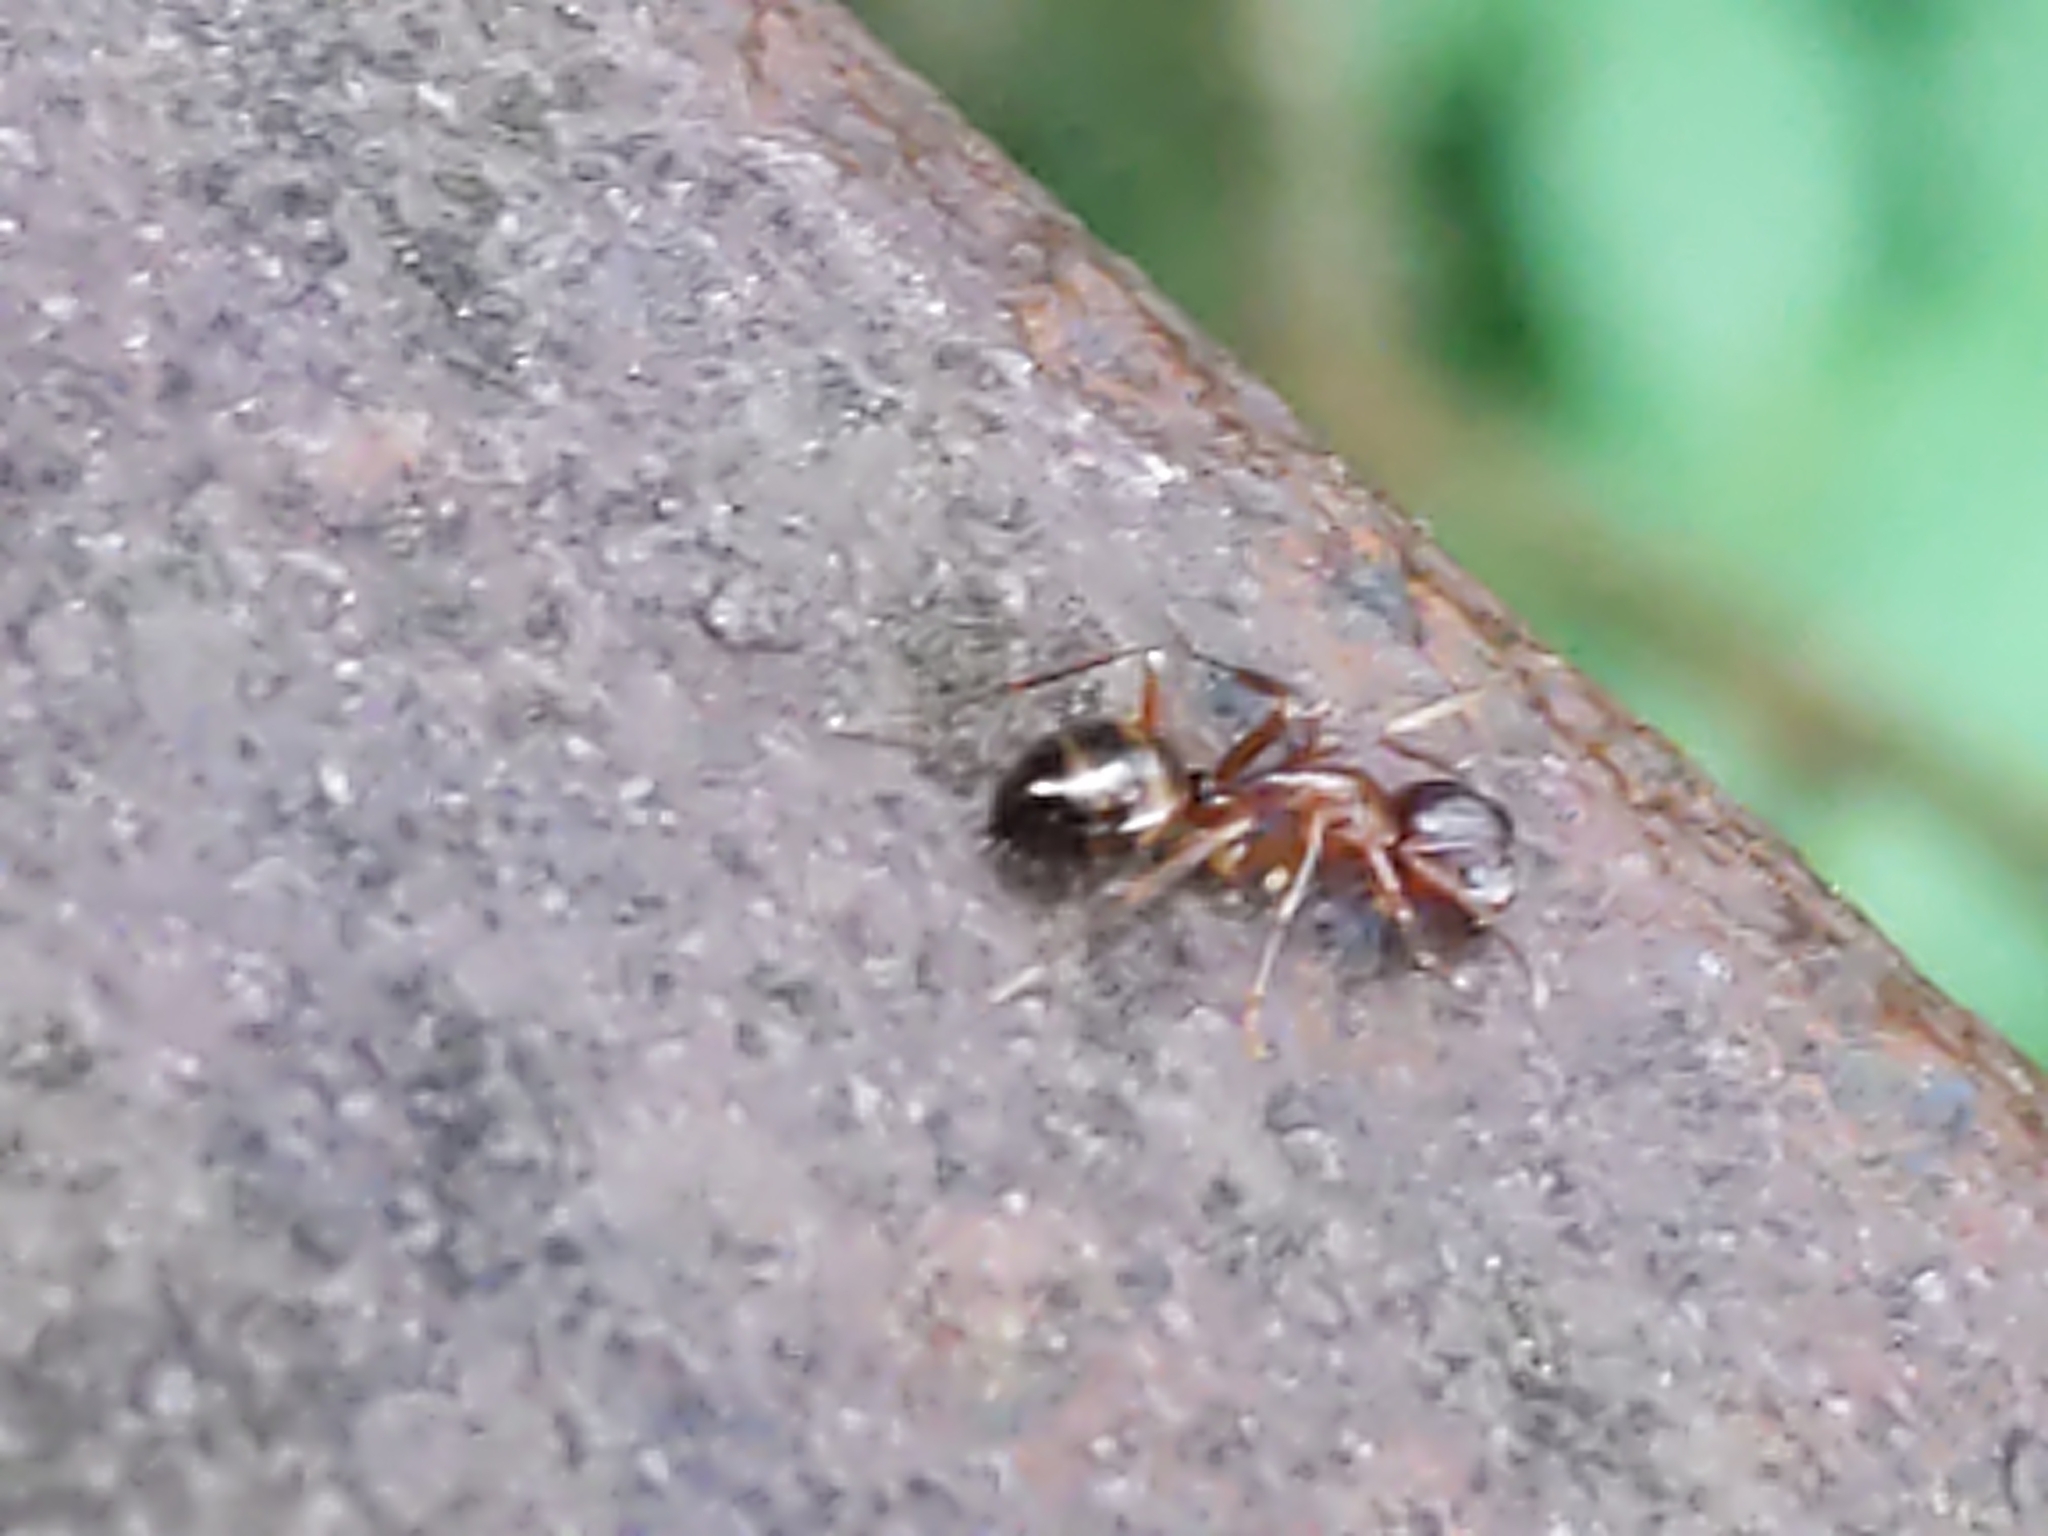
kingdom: Animalia
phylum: Arthropoda
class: Insecta
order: Hymenoptera
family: Formicidae
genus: Camponotus
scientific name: Camponotus subbarbatus
